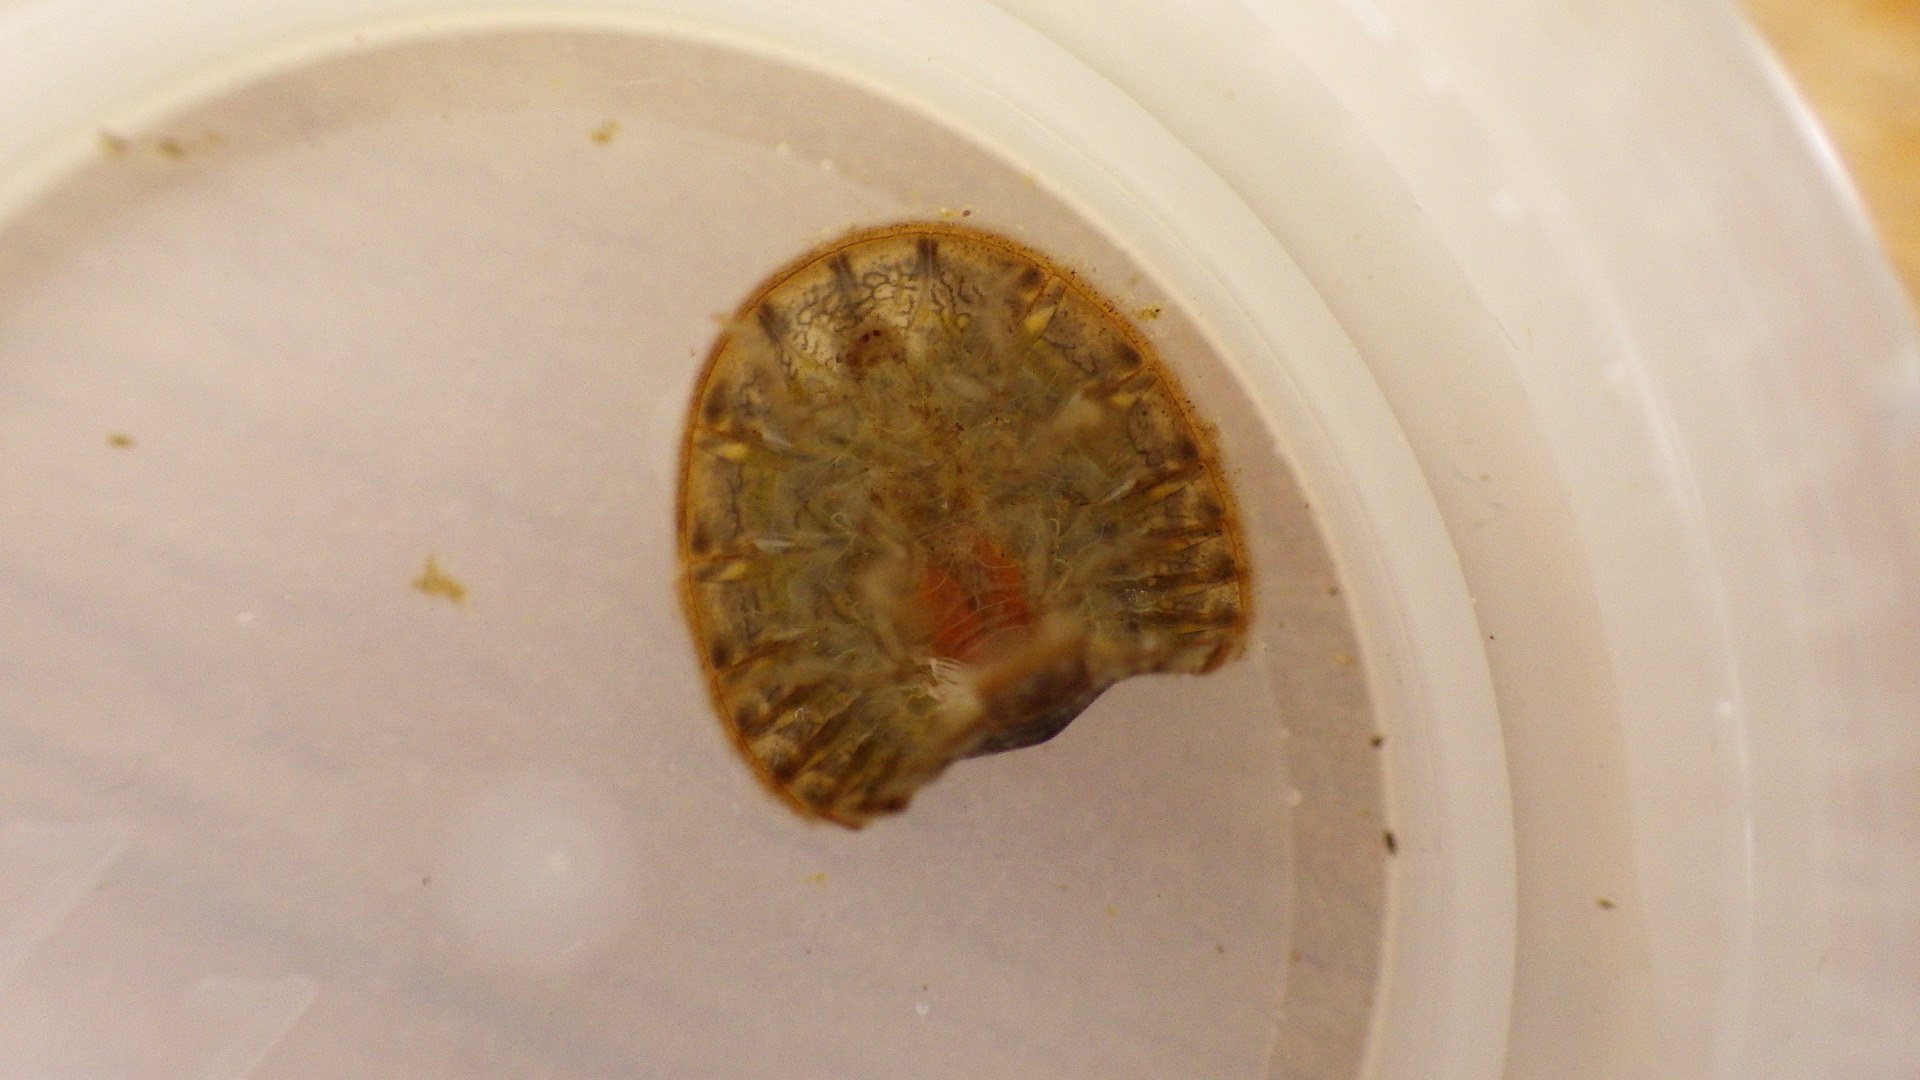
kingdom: Animalia
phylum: Arthropoda
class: Insecta
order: Coleoptera
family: Psephenidae
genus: Psephenus
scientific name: Psephenus herricki
